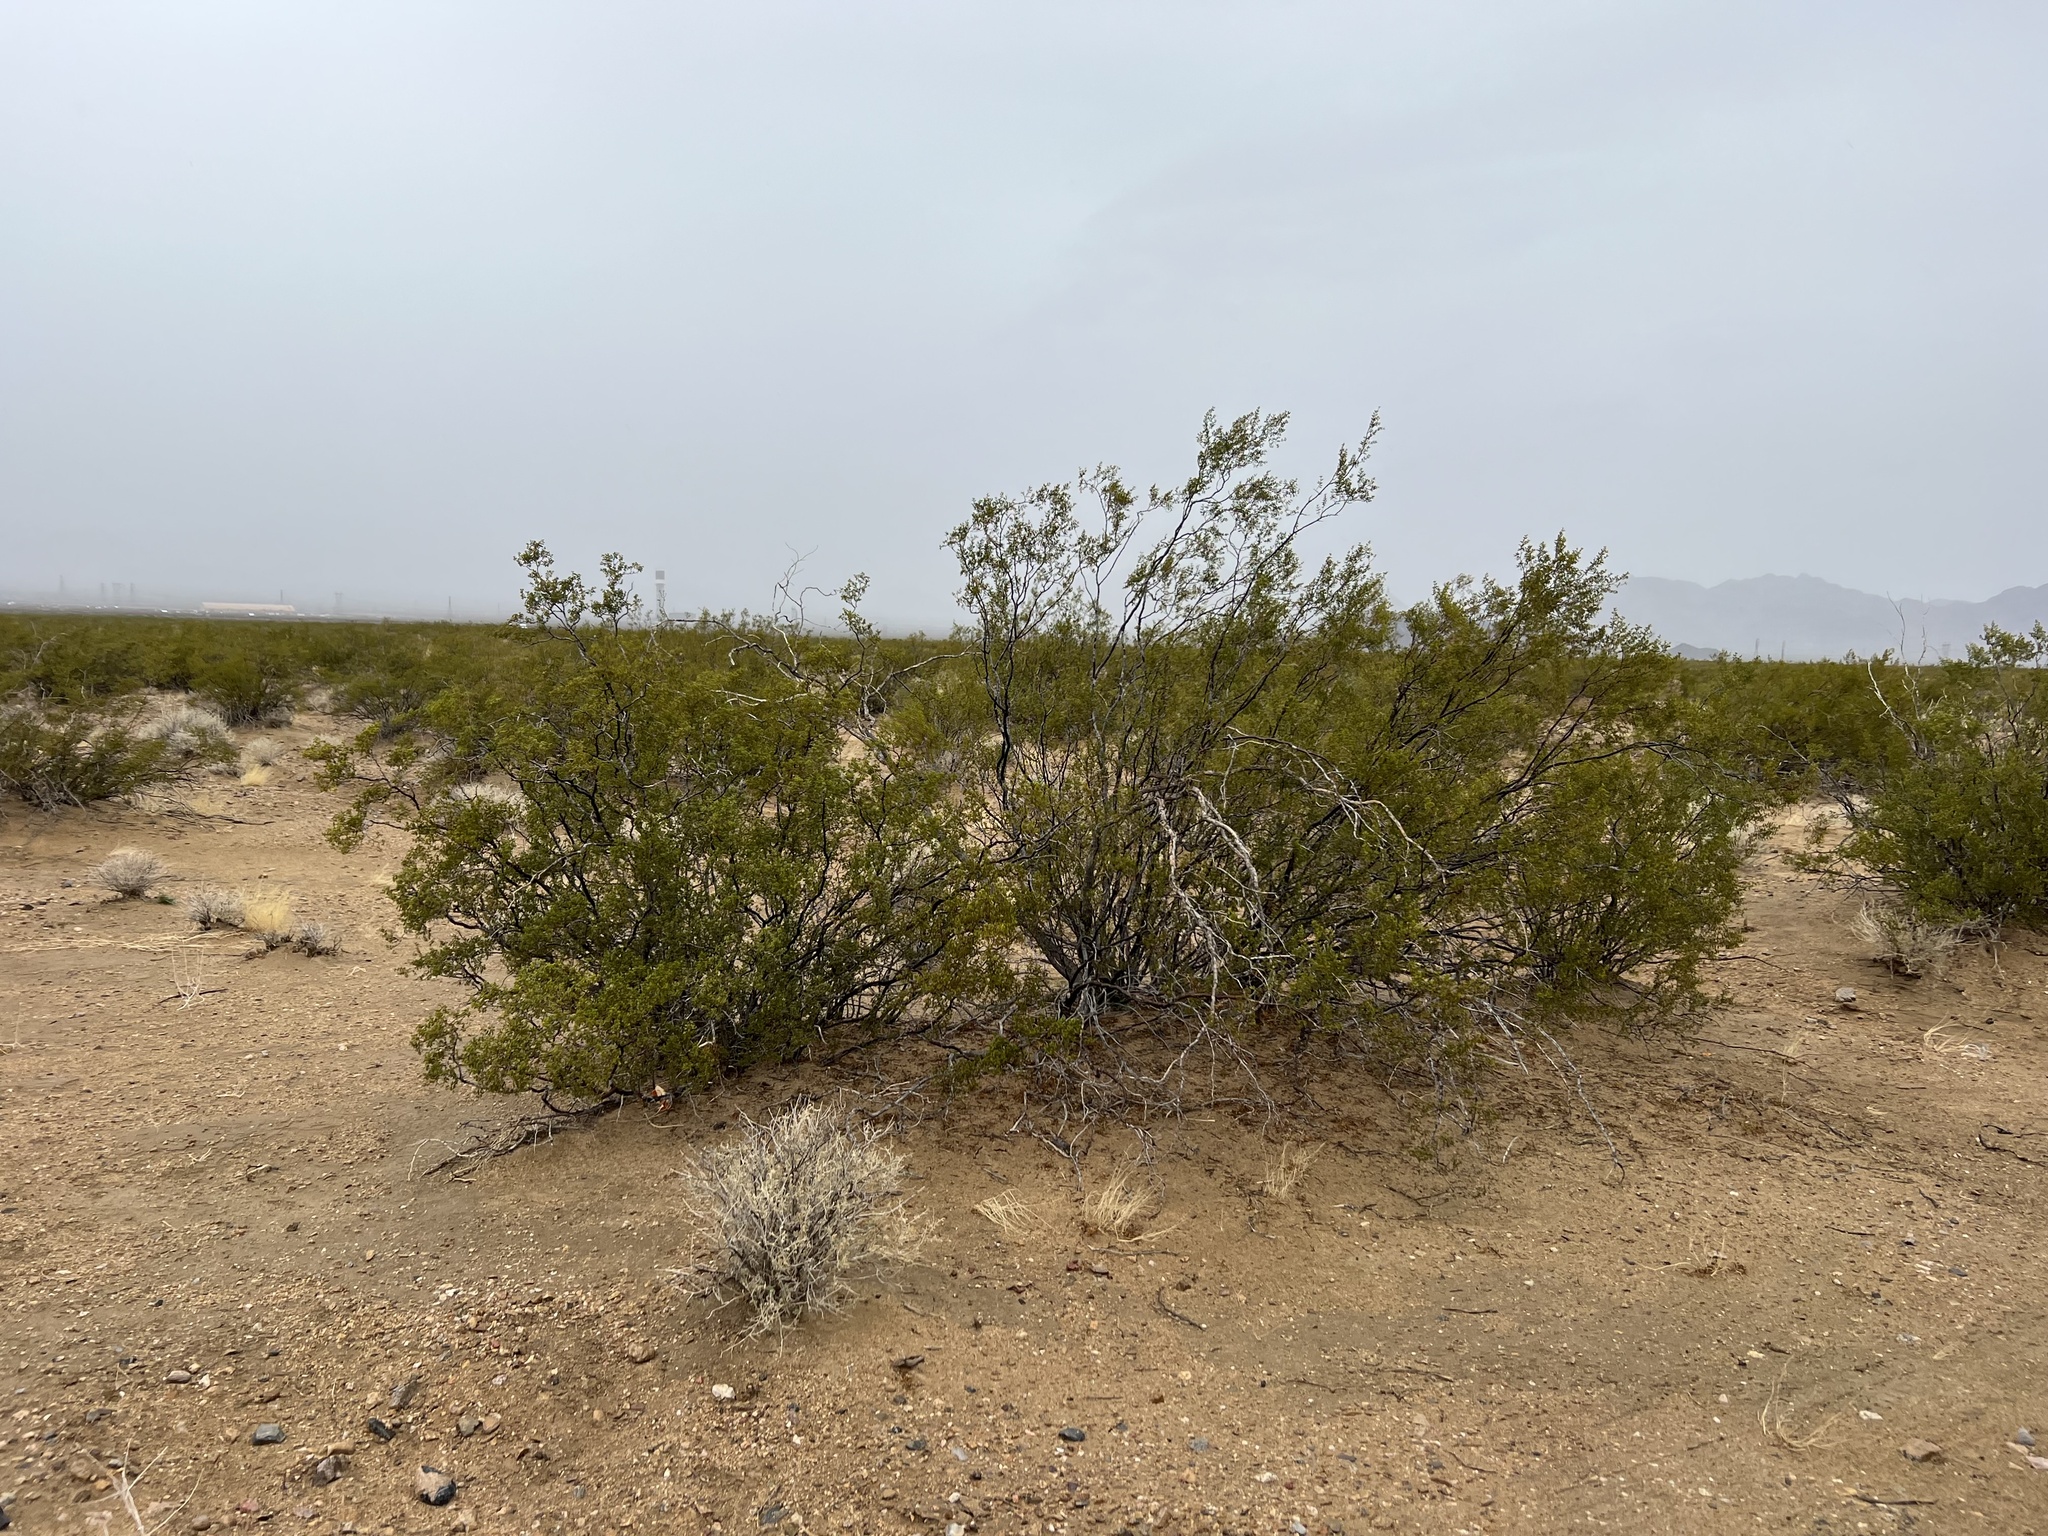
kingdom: Plantae
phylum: Tracheophyta
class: Magnoliopsida
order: Zygophyllales
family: Zygophyllaceae
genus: Larrea
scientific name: Larrea tridentata
